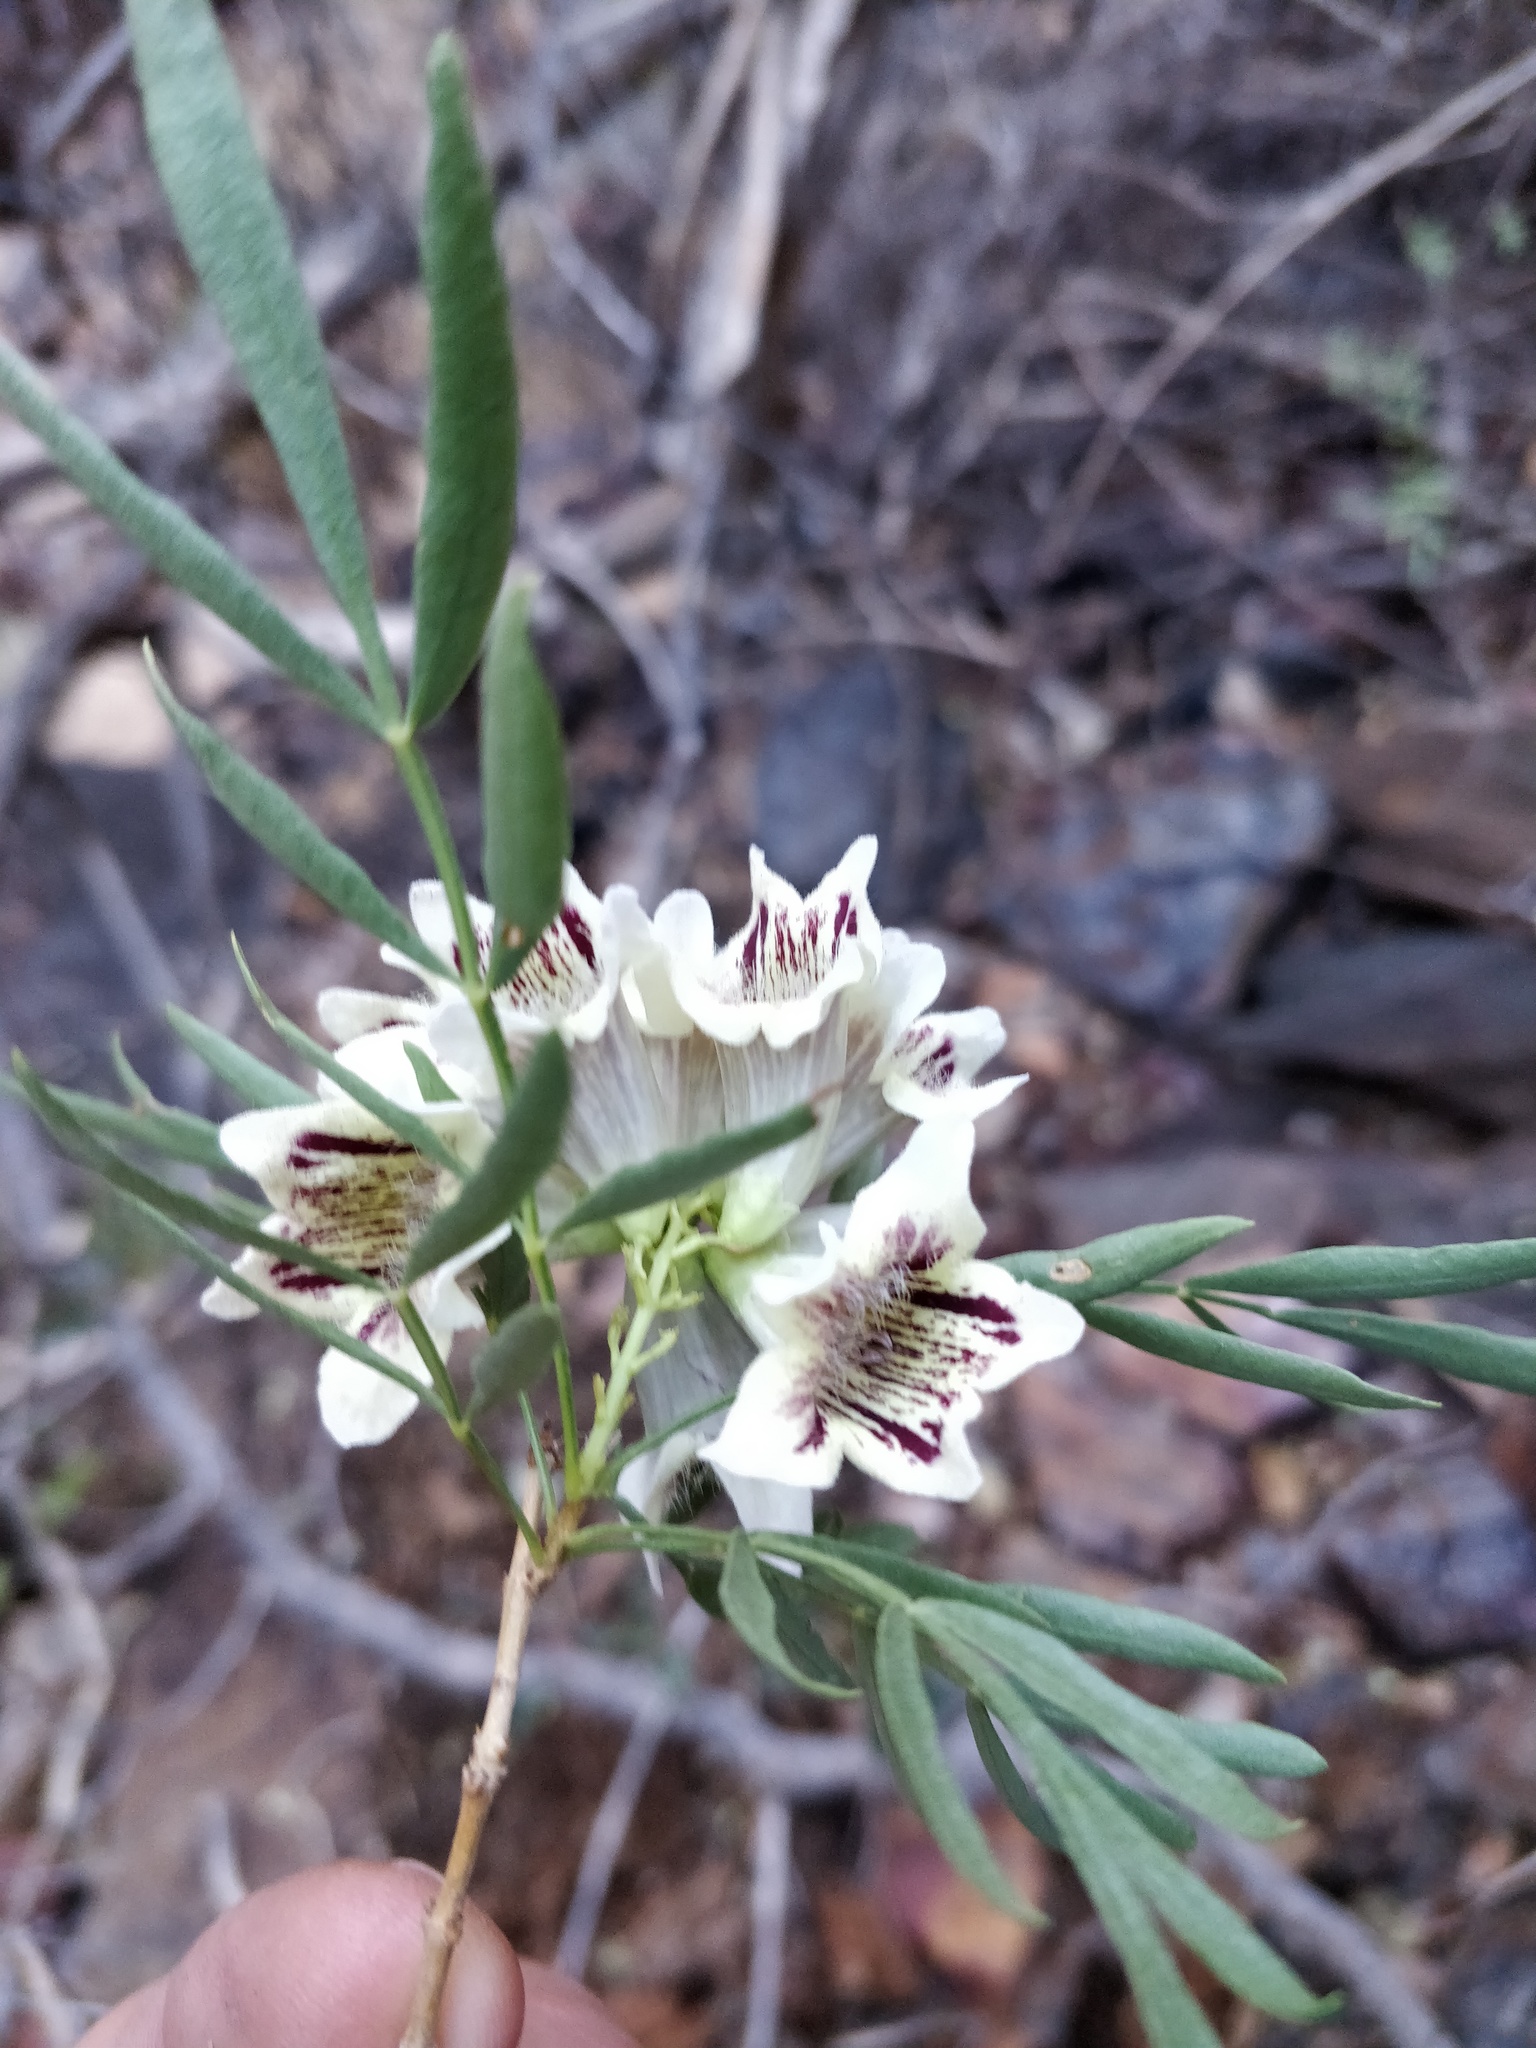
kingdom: Plantae
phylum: Tracheophyta
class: Magnoliopsida
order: Lamiales
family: Bignoniaceae
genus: Pandorea
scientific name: Pandorea doratoxylon
